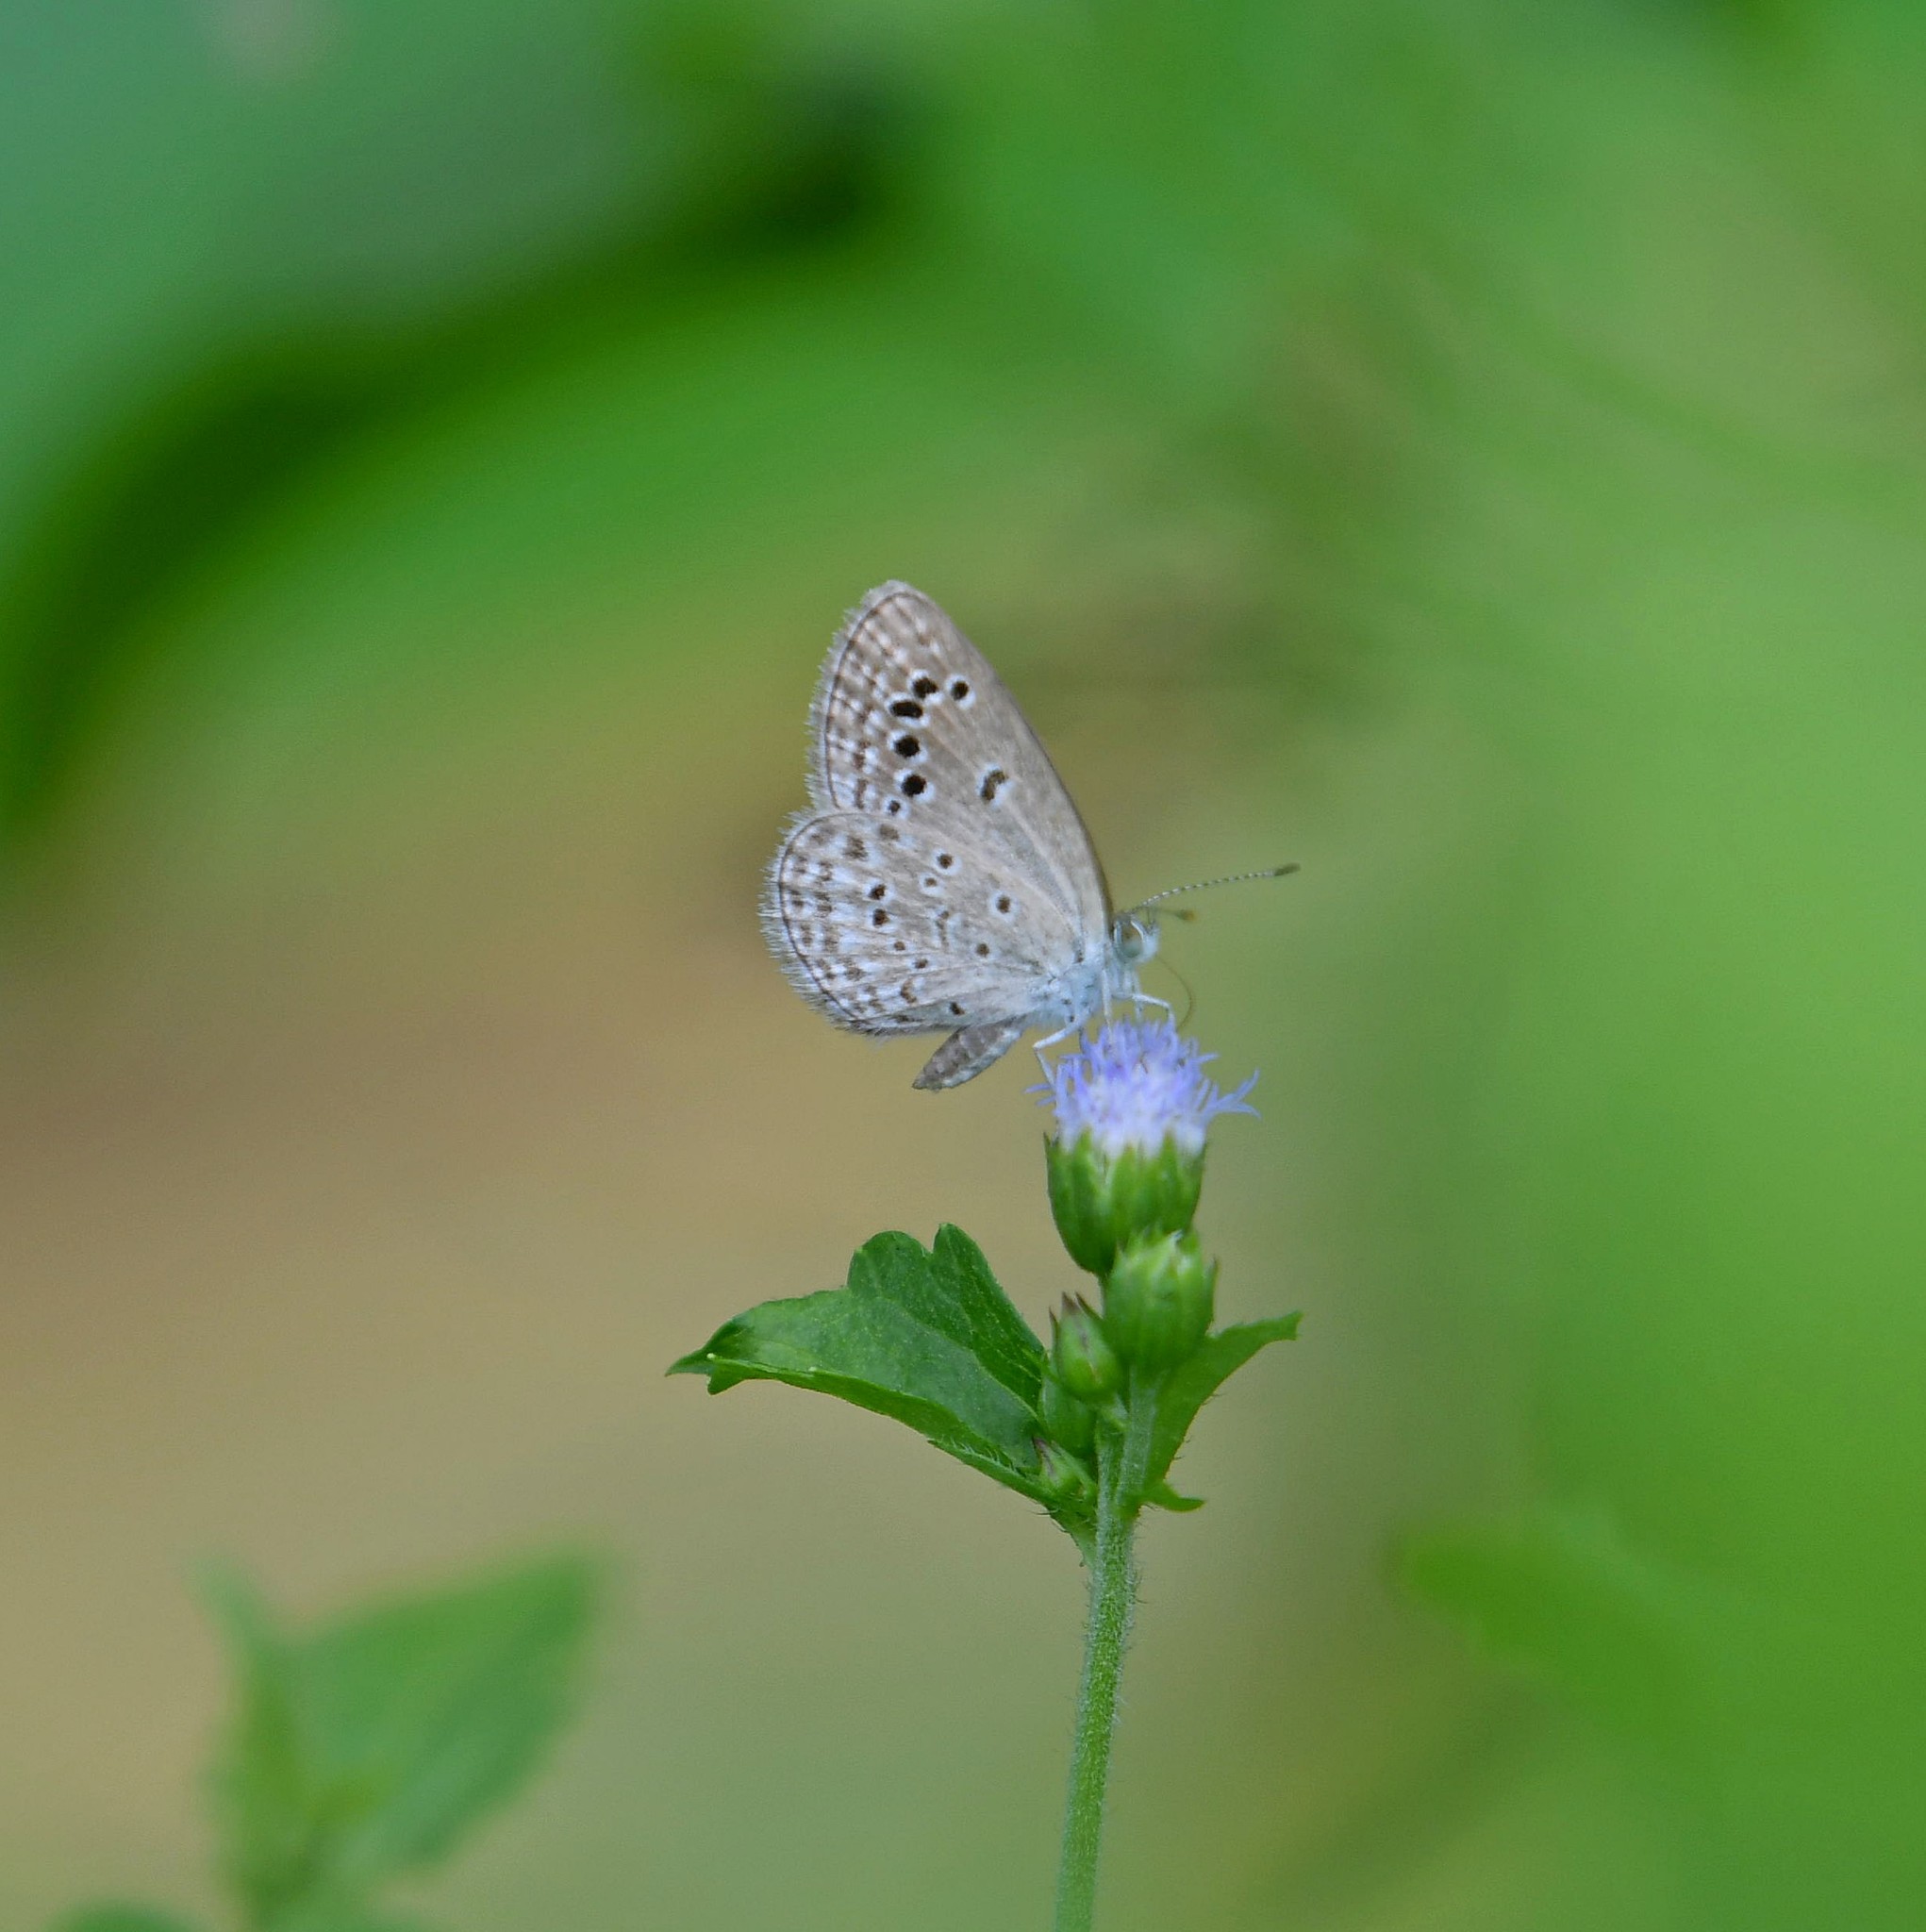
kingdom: Animalia
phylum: Arthropoda
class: Insecta
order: Lepidoptera
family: Lycaenidae
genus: Zizina
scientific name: Zizina otis
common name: Lesser grass blue
